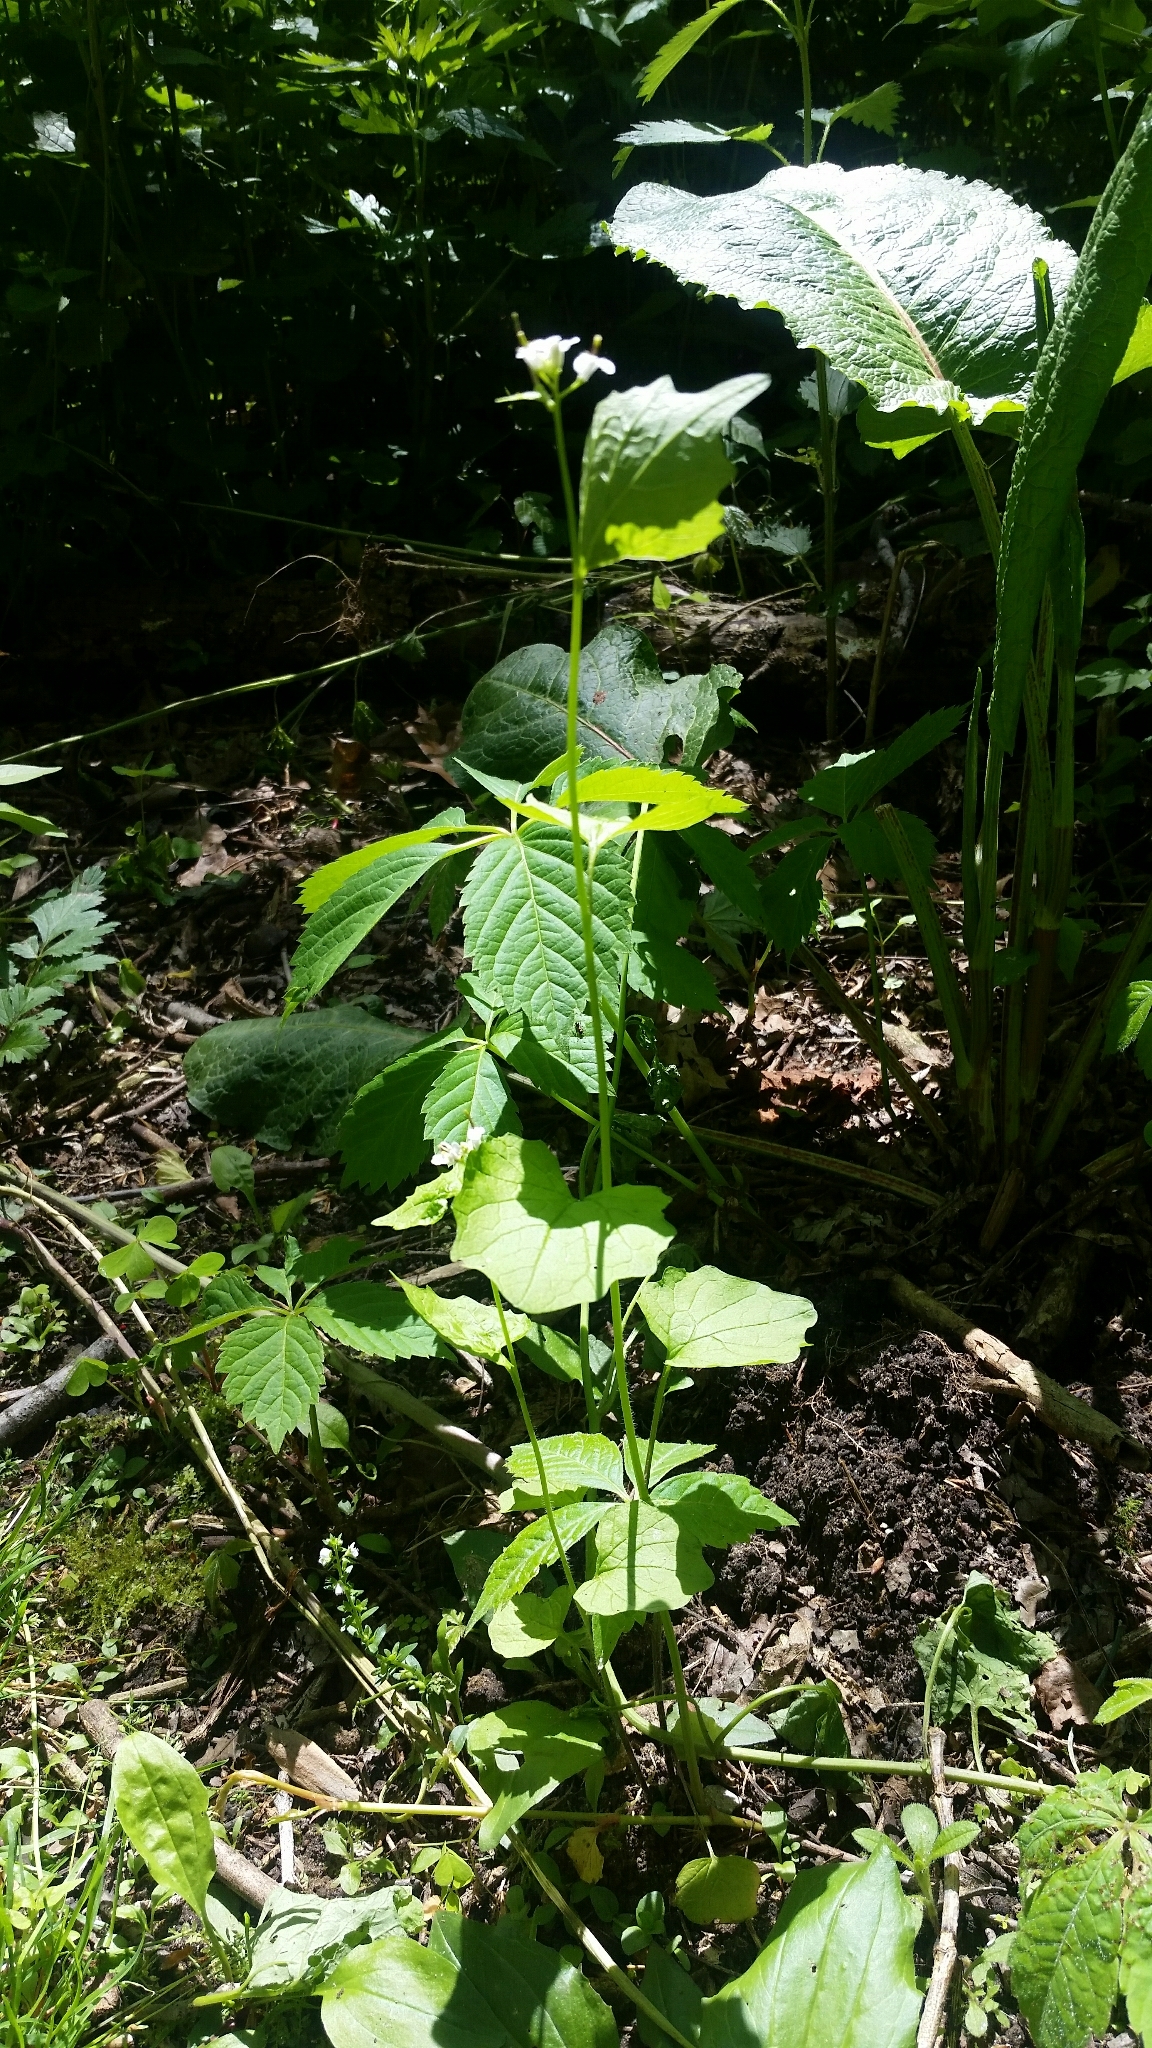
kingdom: Plantae
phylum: Tracheophyta
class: Magnoliopsida
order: Brassicales
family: Brassicaceae
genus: Alliaria
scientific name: Alliaria petiolata
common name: Garlic mustard
